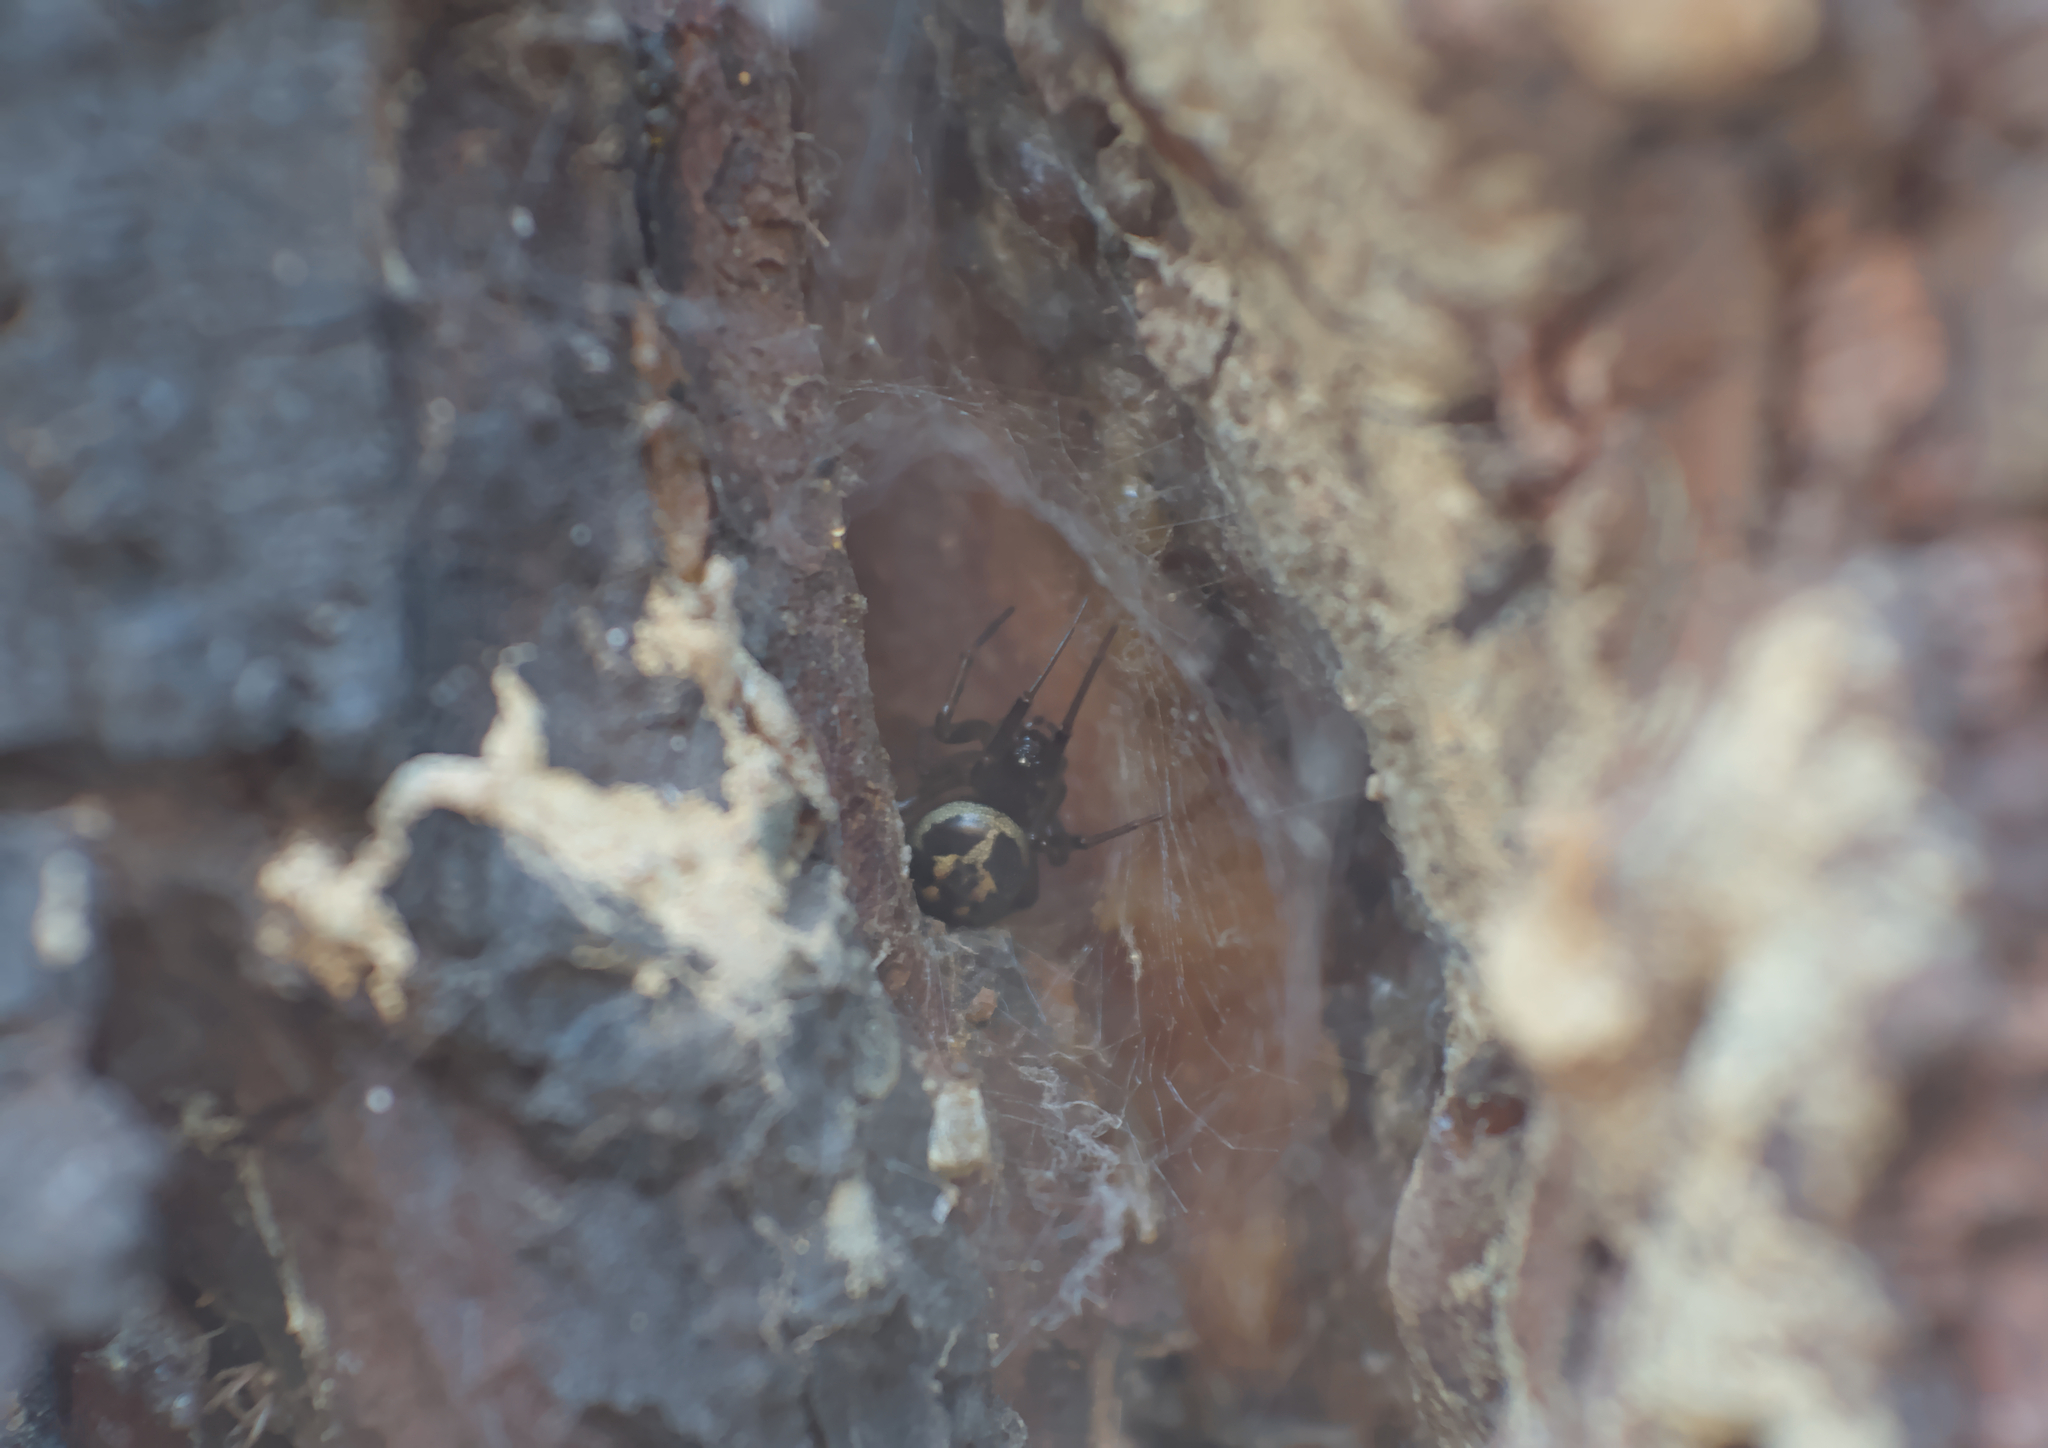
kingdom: Animalia
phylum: Arthropoda
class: Arachnida
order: Araneae
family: Theridiidae
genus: Steatoda
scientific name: Steatoda nobilis
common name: Cobweb weaver
